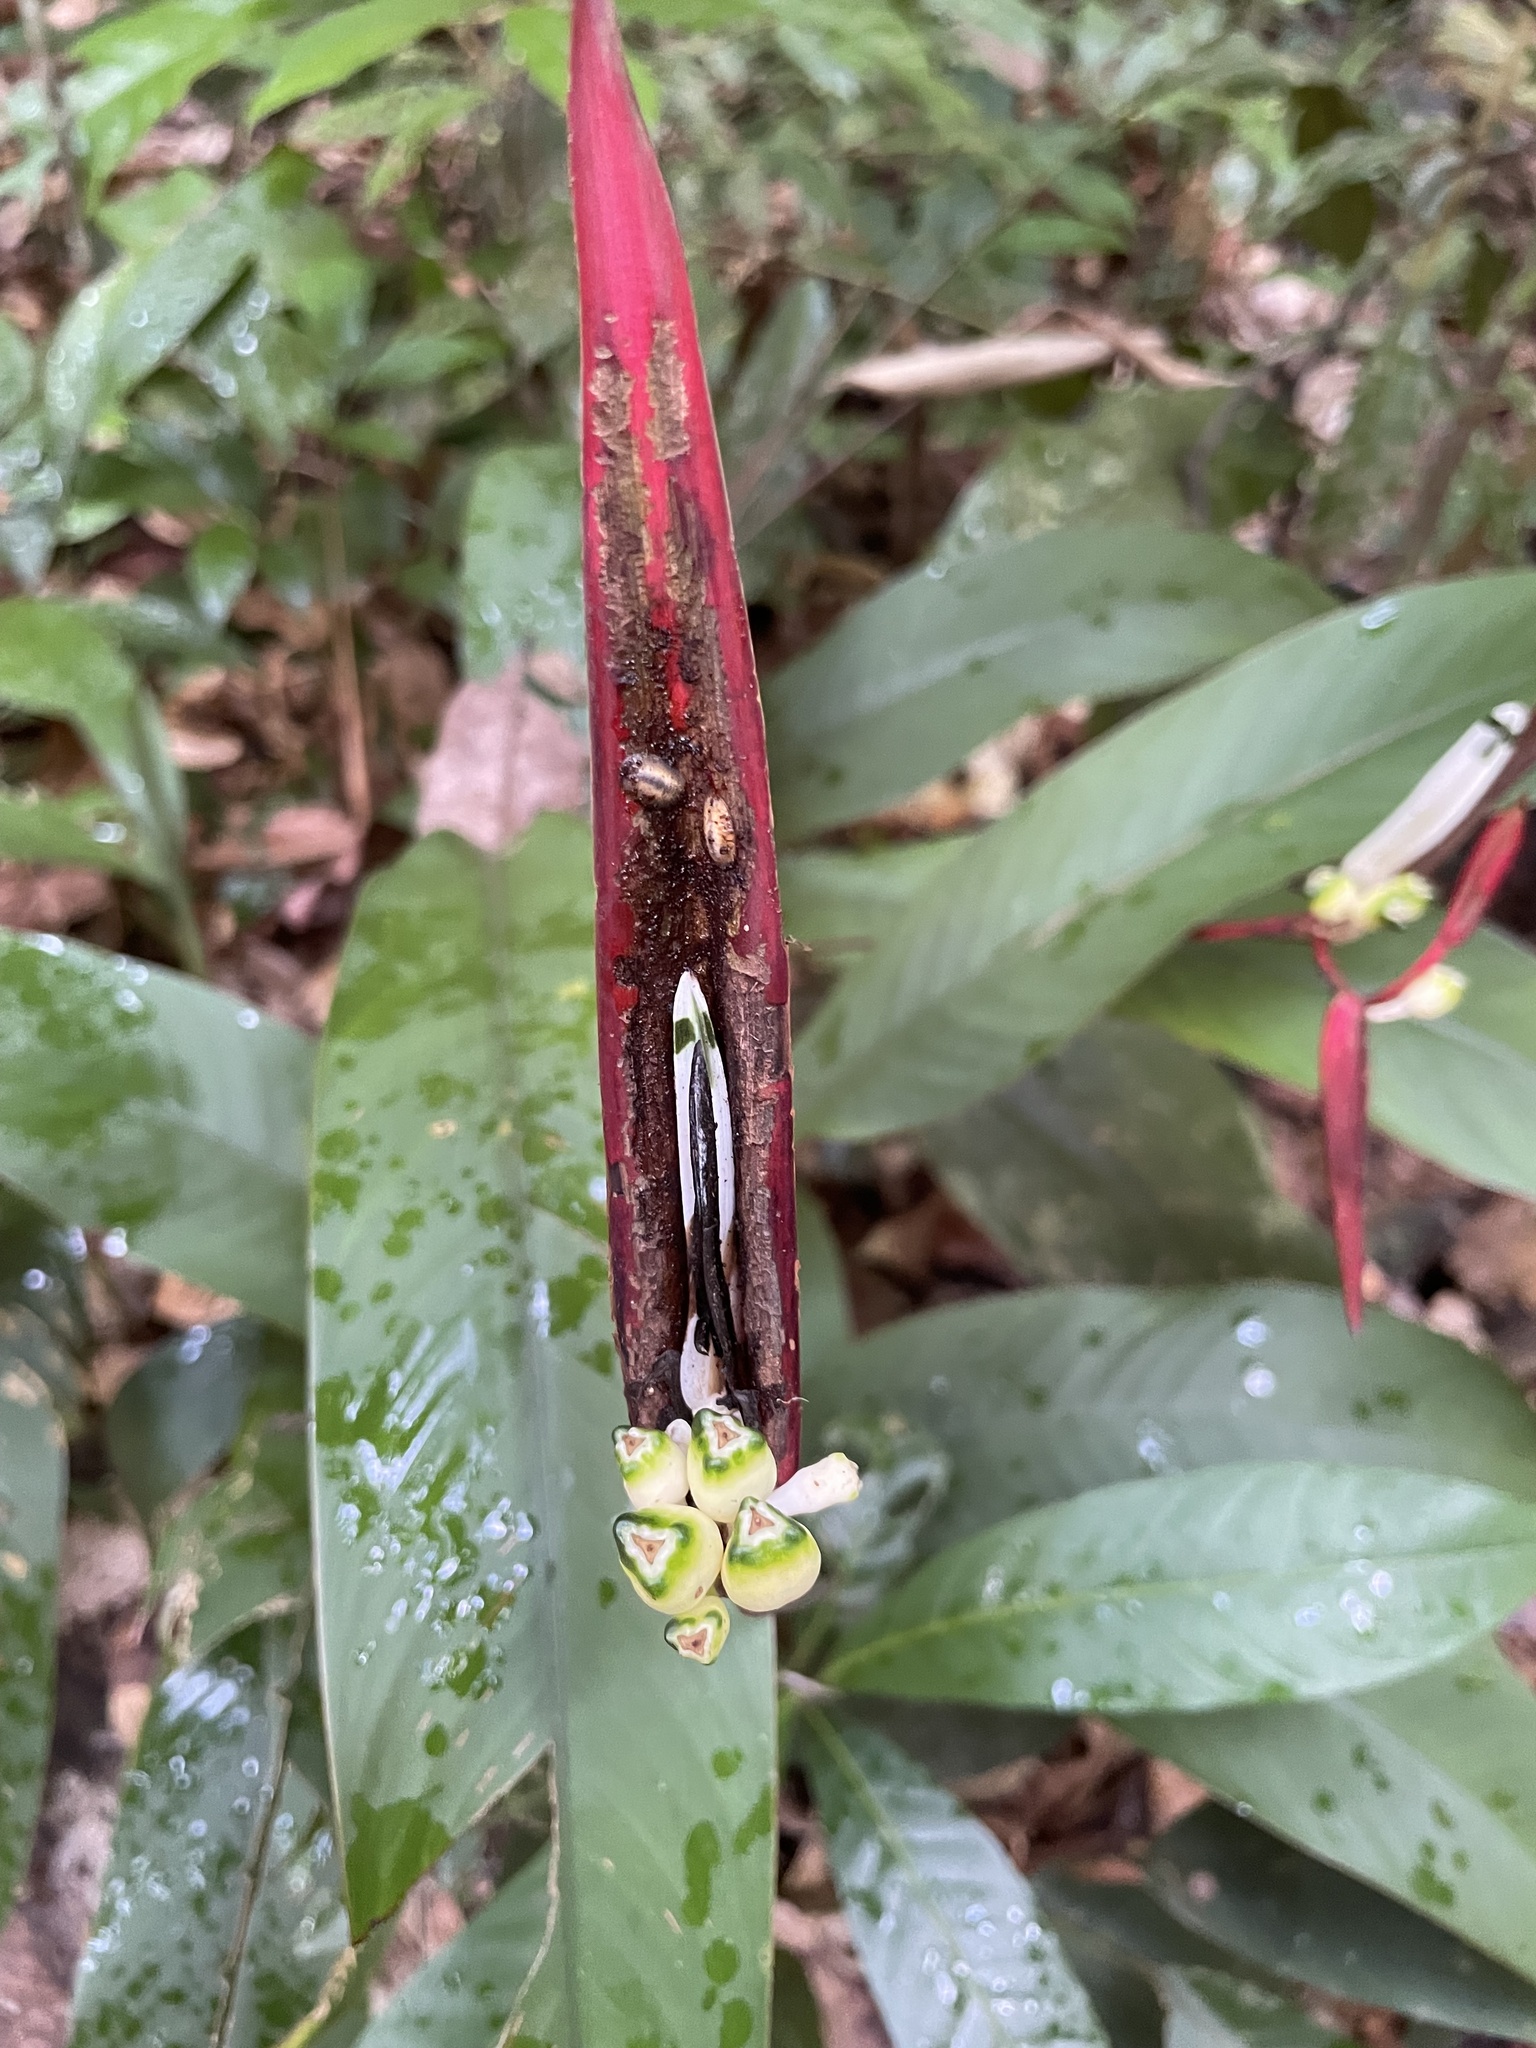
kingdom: Plantae
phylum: Tracheophyta
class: Liliopsida
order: Zingiberales
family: Heliconiaceae
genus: Heliconia
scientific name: Heliconia acuminata
